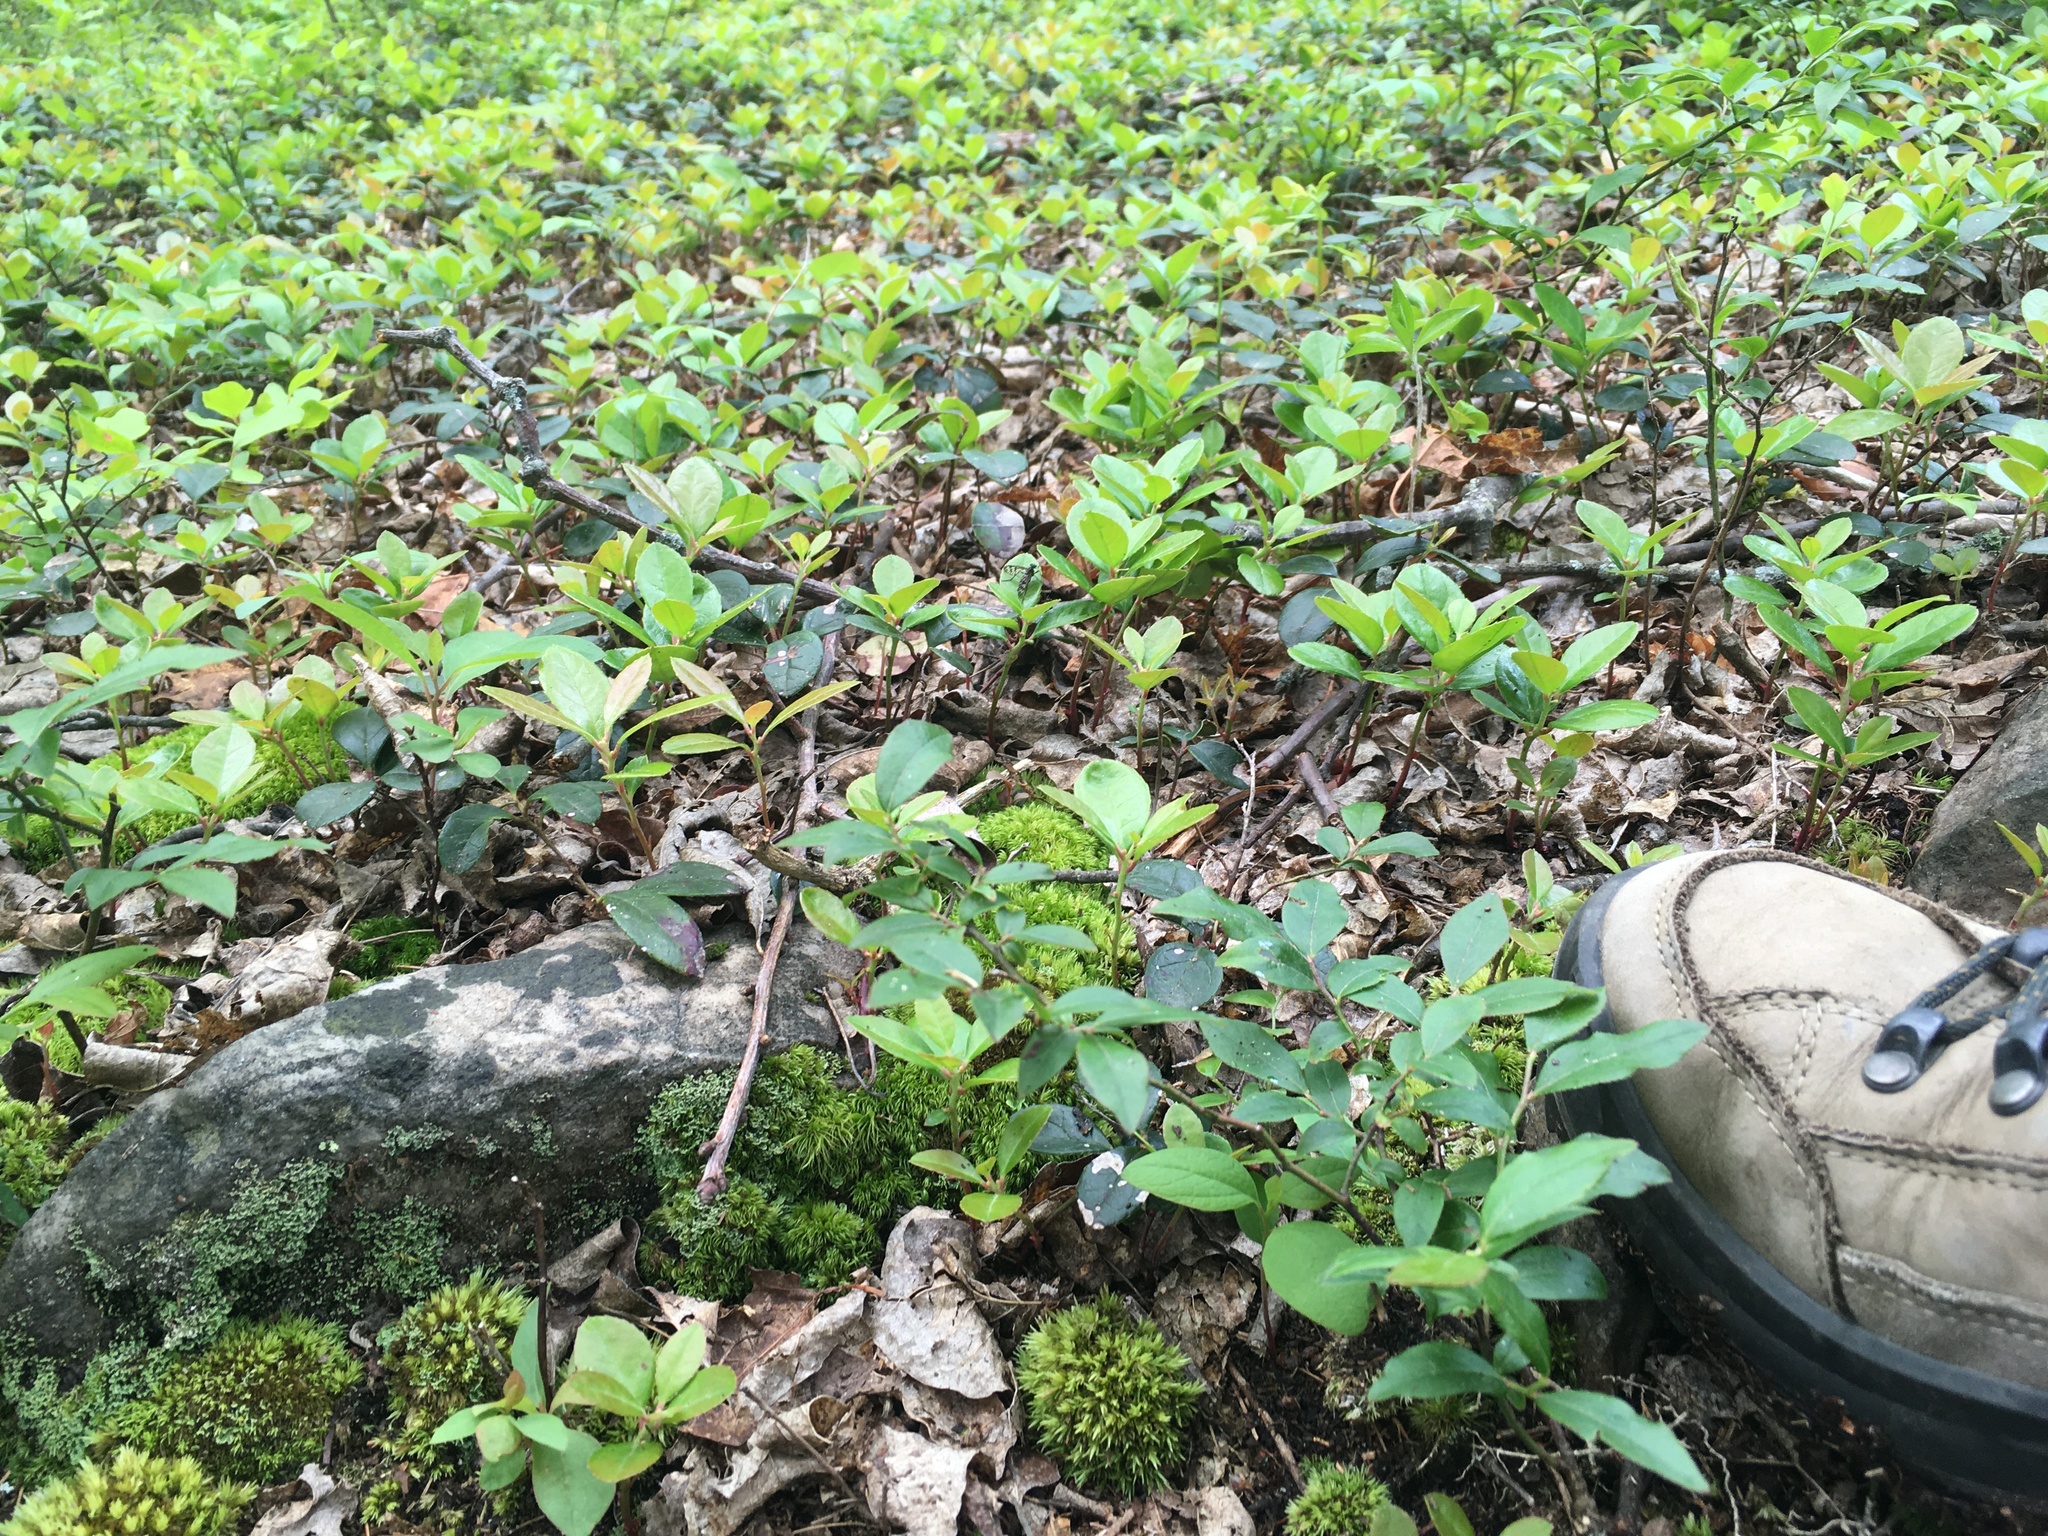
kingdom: Plantae
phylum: Tracheophyta
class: Magnoliopsida
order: Ericales
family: Ericaceae
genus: Gaultheria
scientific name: Gaultheria procumbens
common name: Checkerberry
